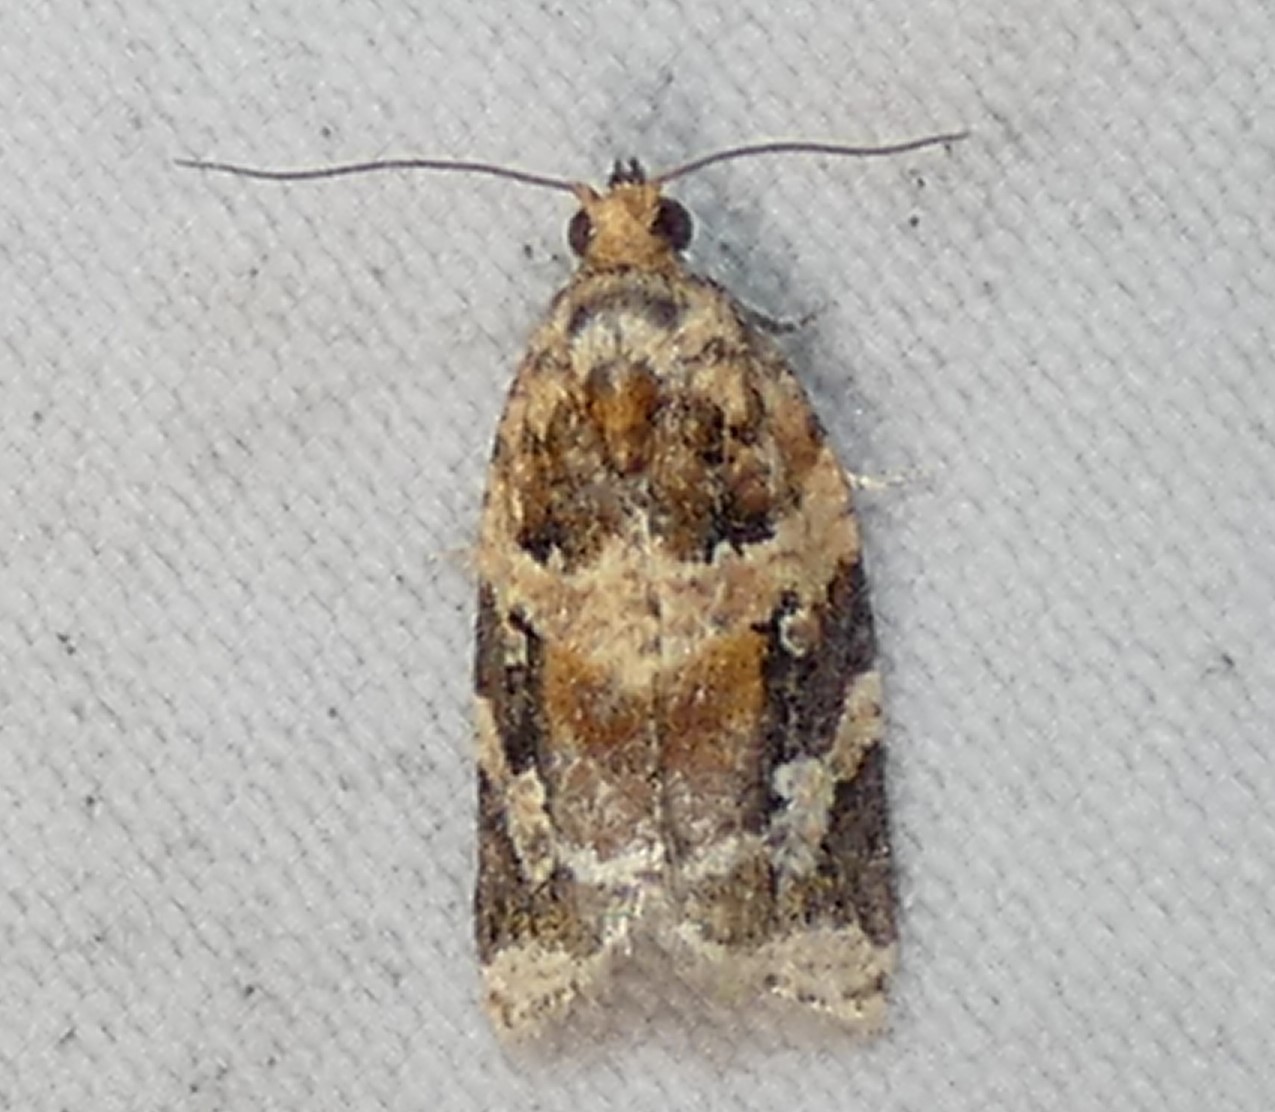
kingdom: Animalia
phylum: Arthropoda
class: Insecta
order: Lepidoptera
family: Tortricidae
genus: Argyrotaenia
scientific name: Argyrotaenia velutinana
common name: Red-banded leafroller moth
